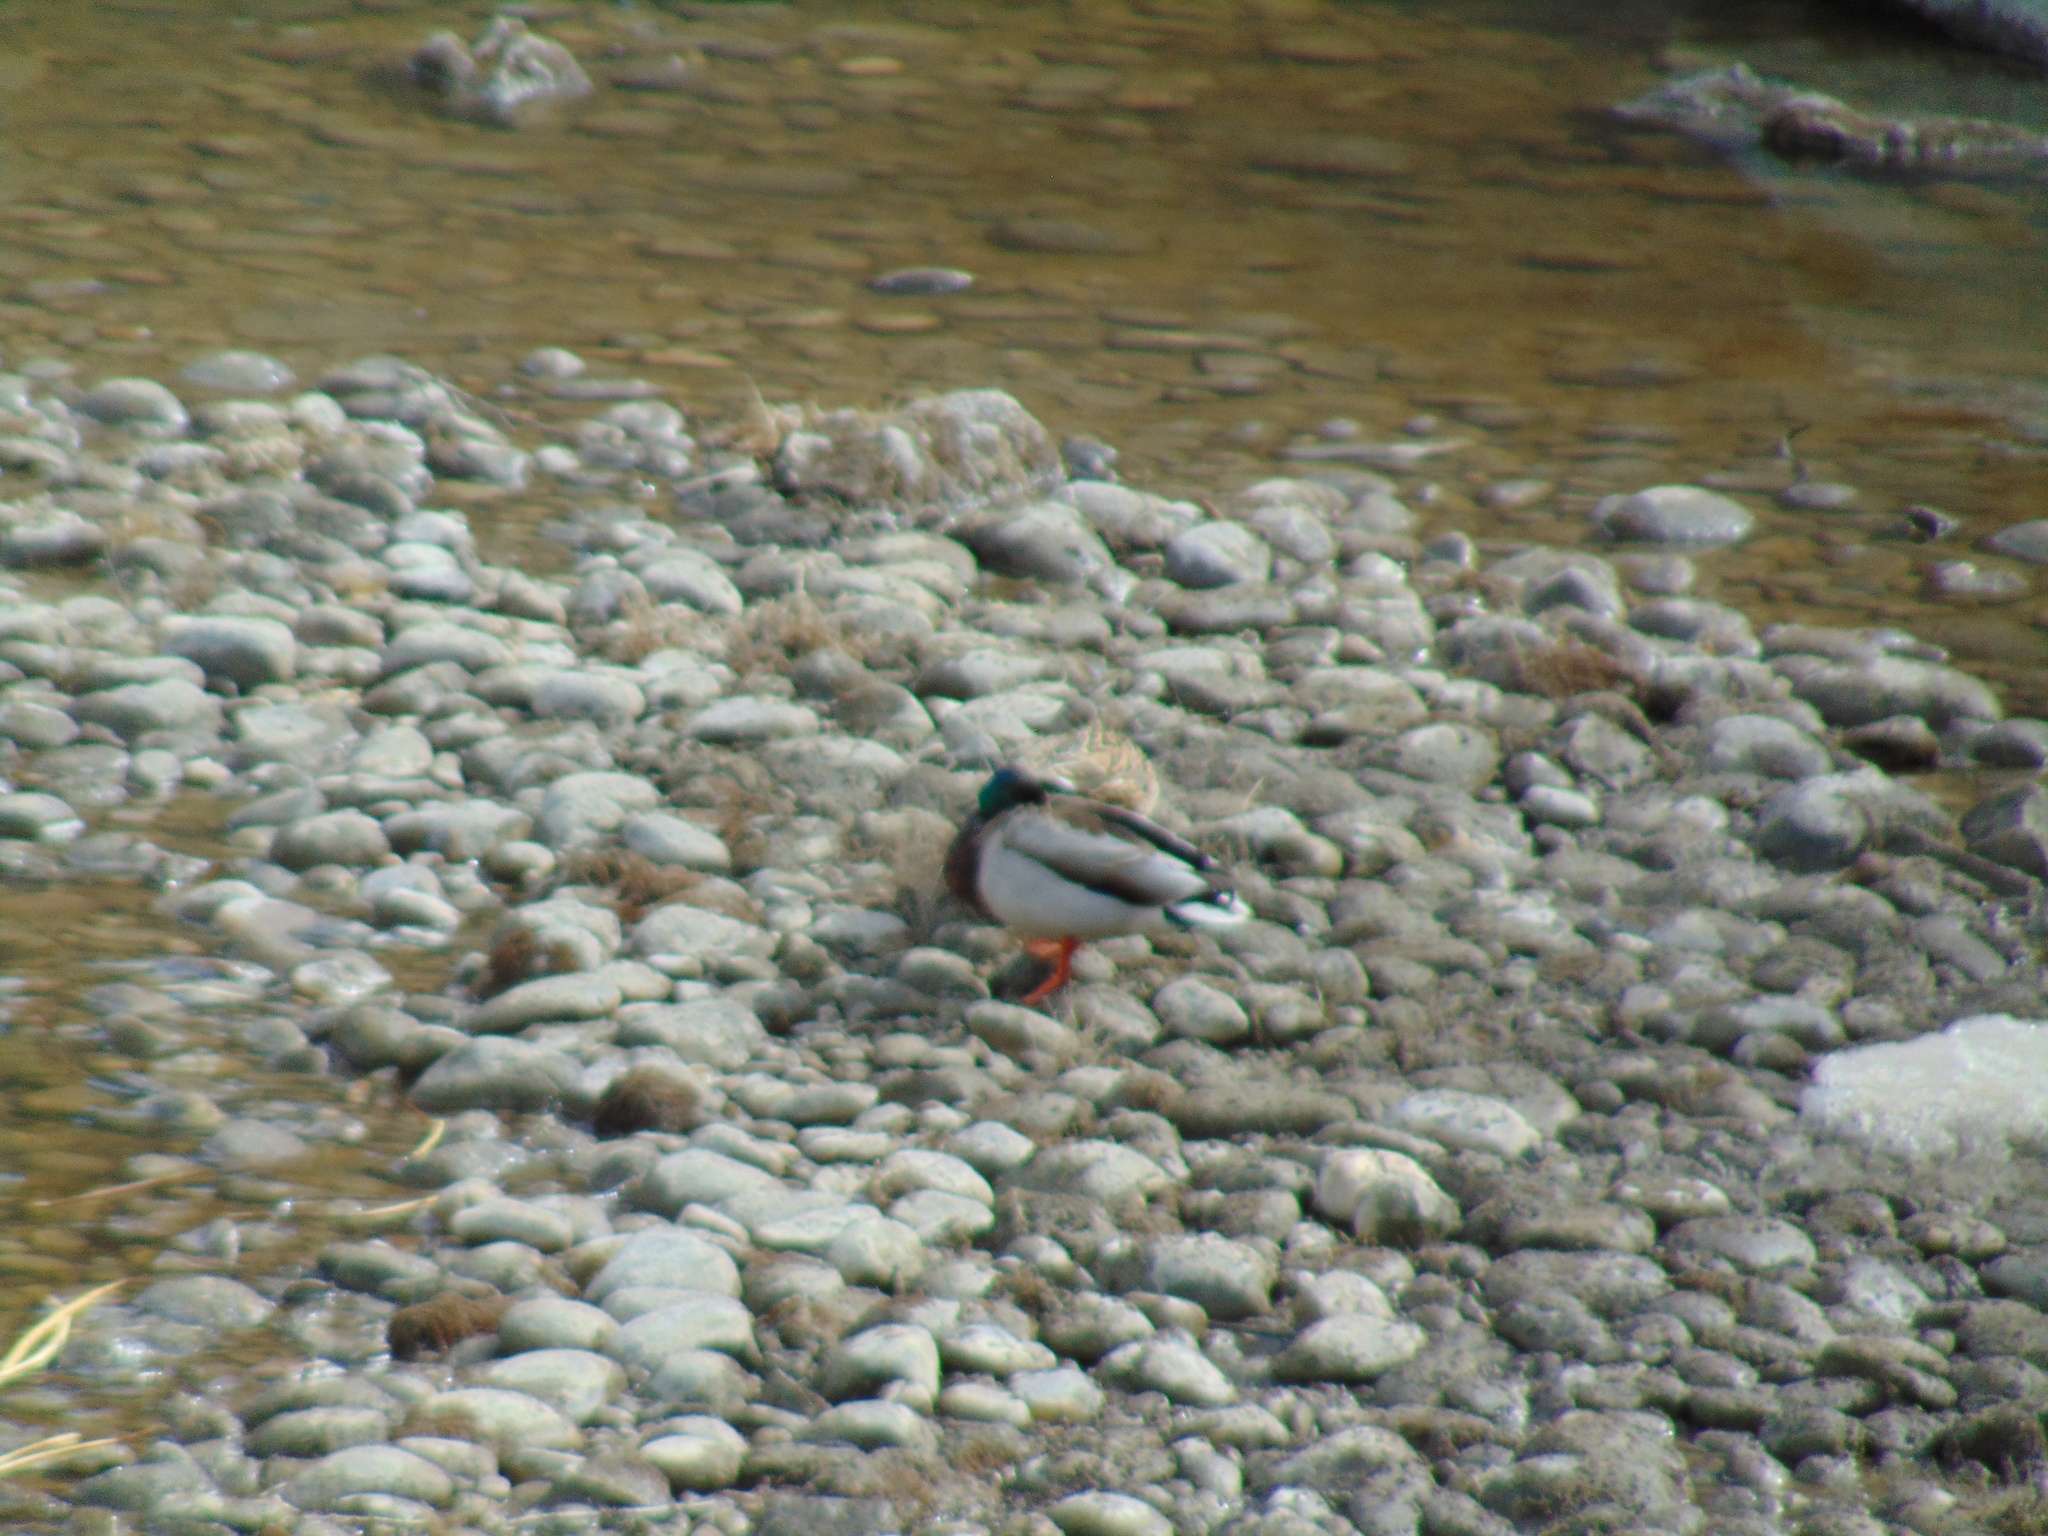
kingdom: Animalia
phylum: Chordata
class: Aves
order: Anseriformes
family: Anatidae
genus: Anas
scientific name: Anas platyrhynchos
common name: Mallard
